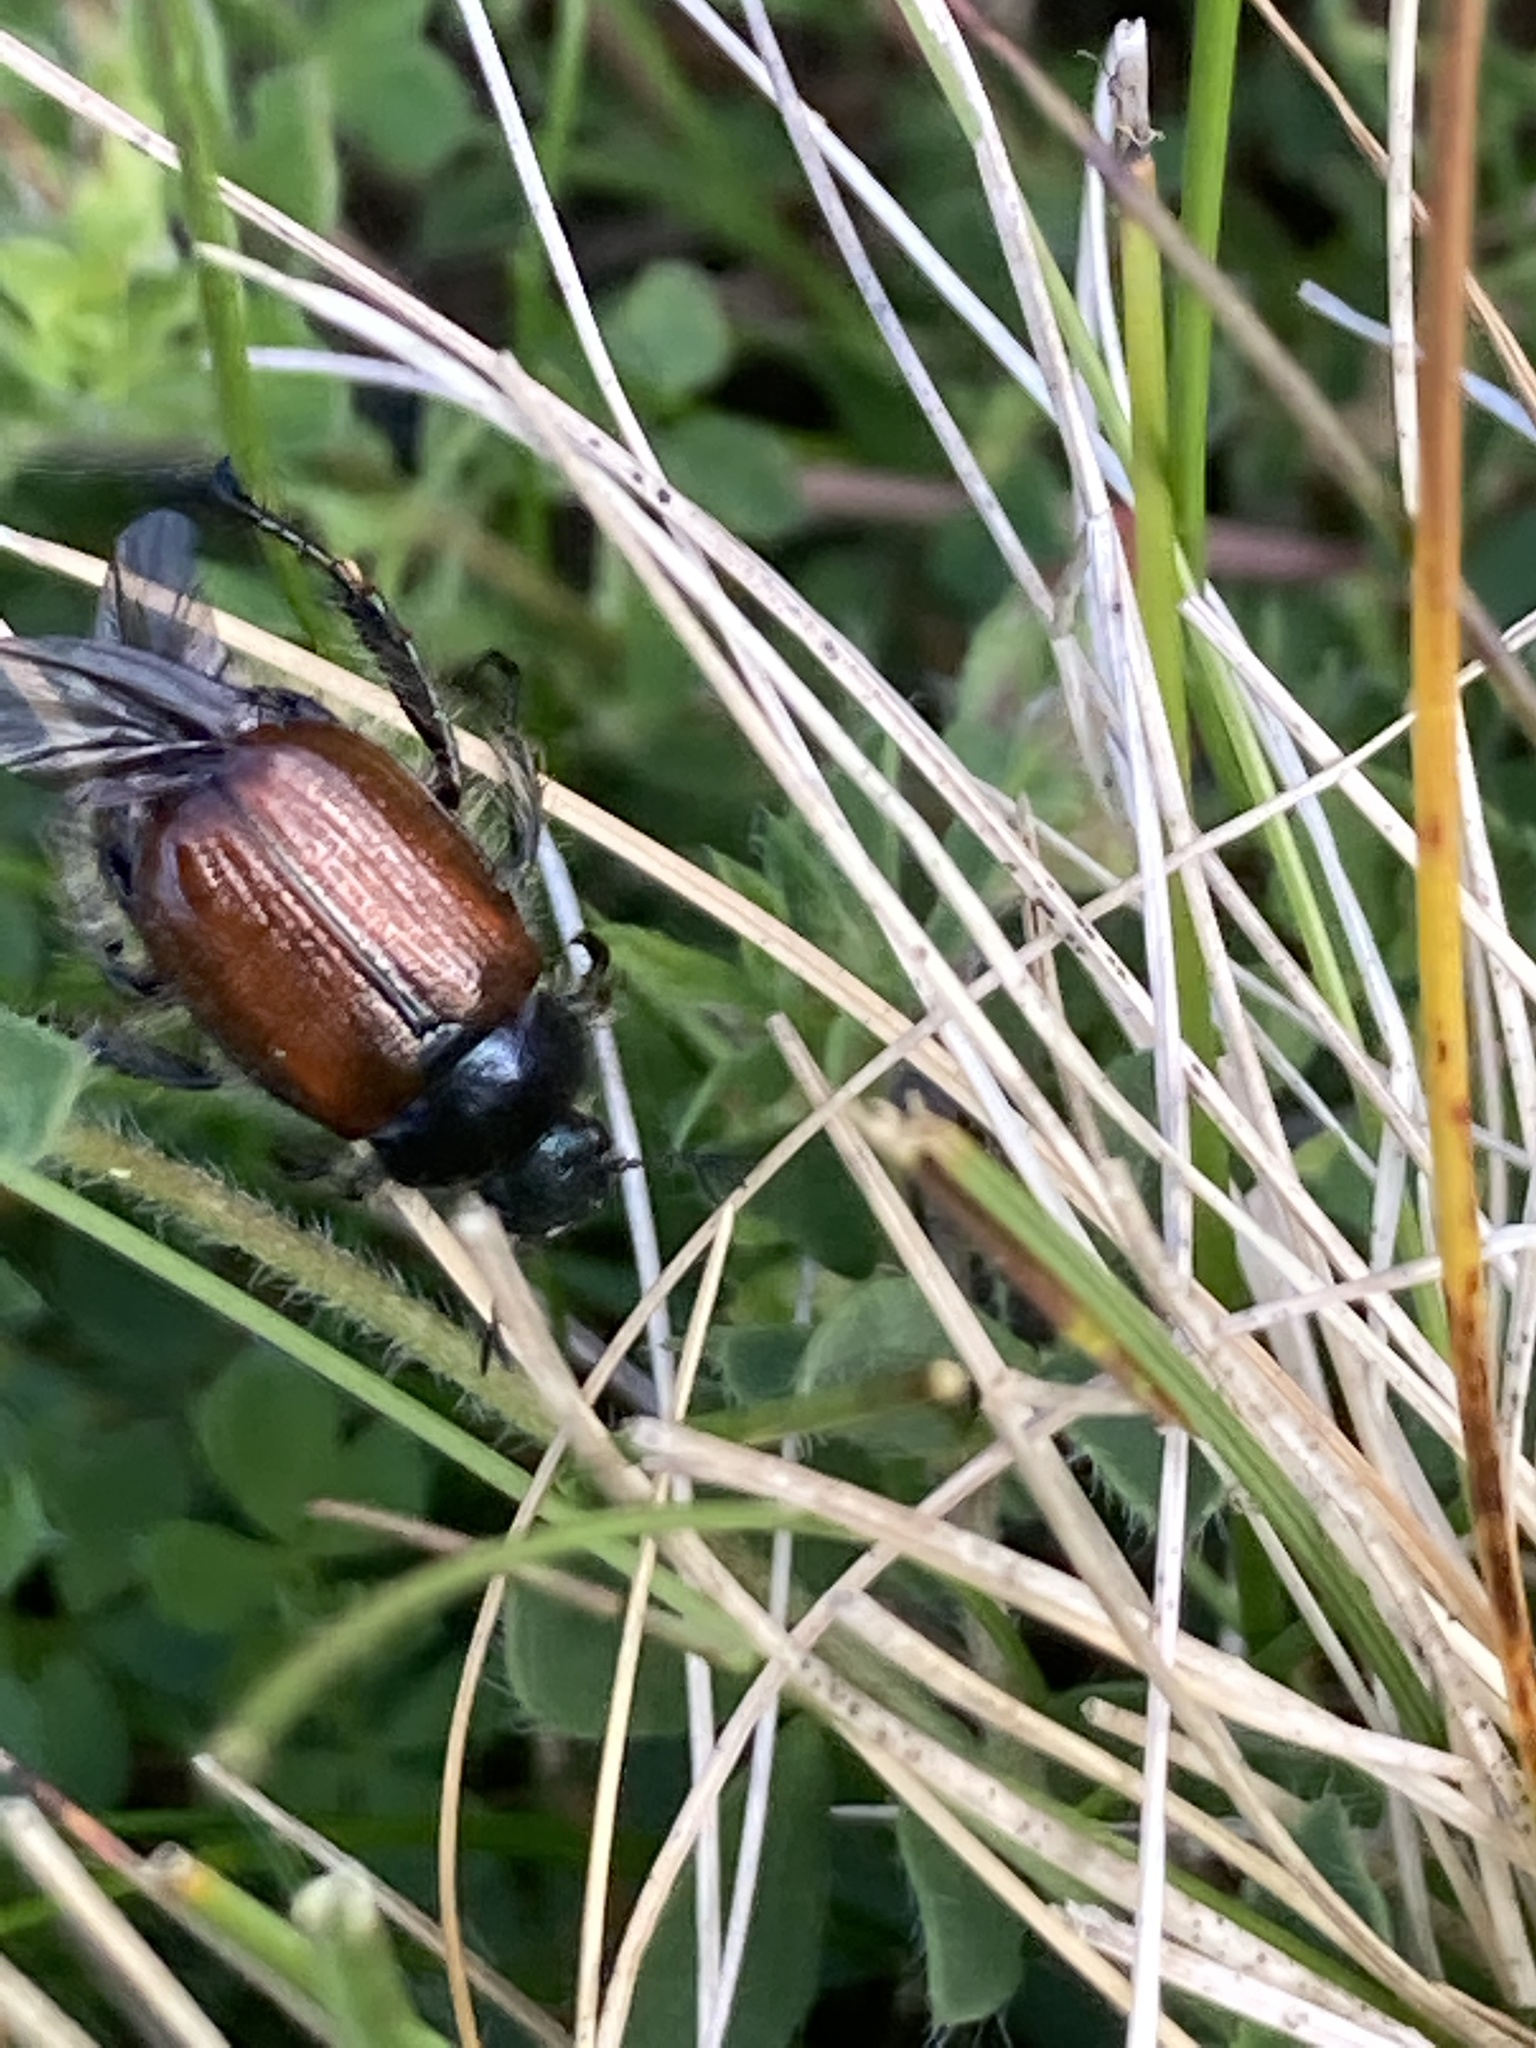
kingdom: Animalia
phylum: Arthropoda
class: Insecta
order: Coleoptera
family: Scarabaeidae
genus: Phyllopertha
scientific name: Phyllopertha horticola
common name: Garden chafer
